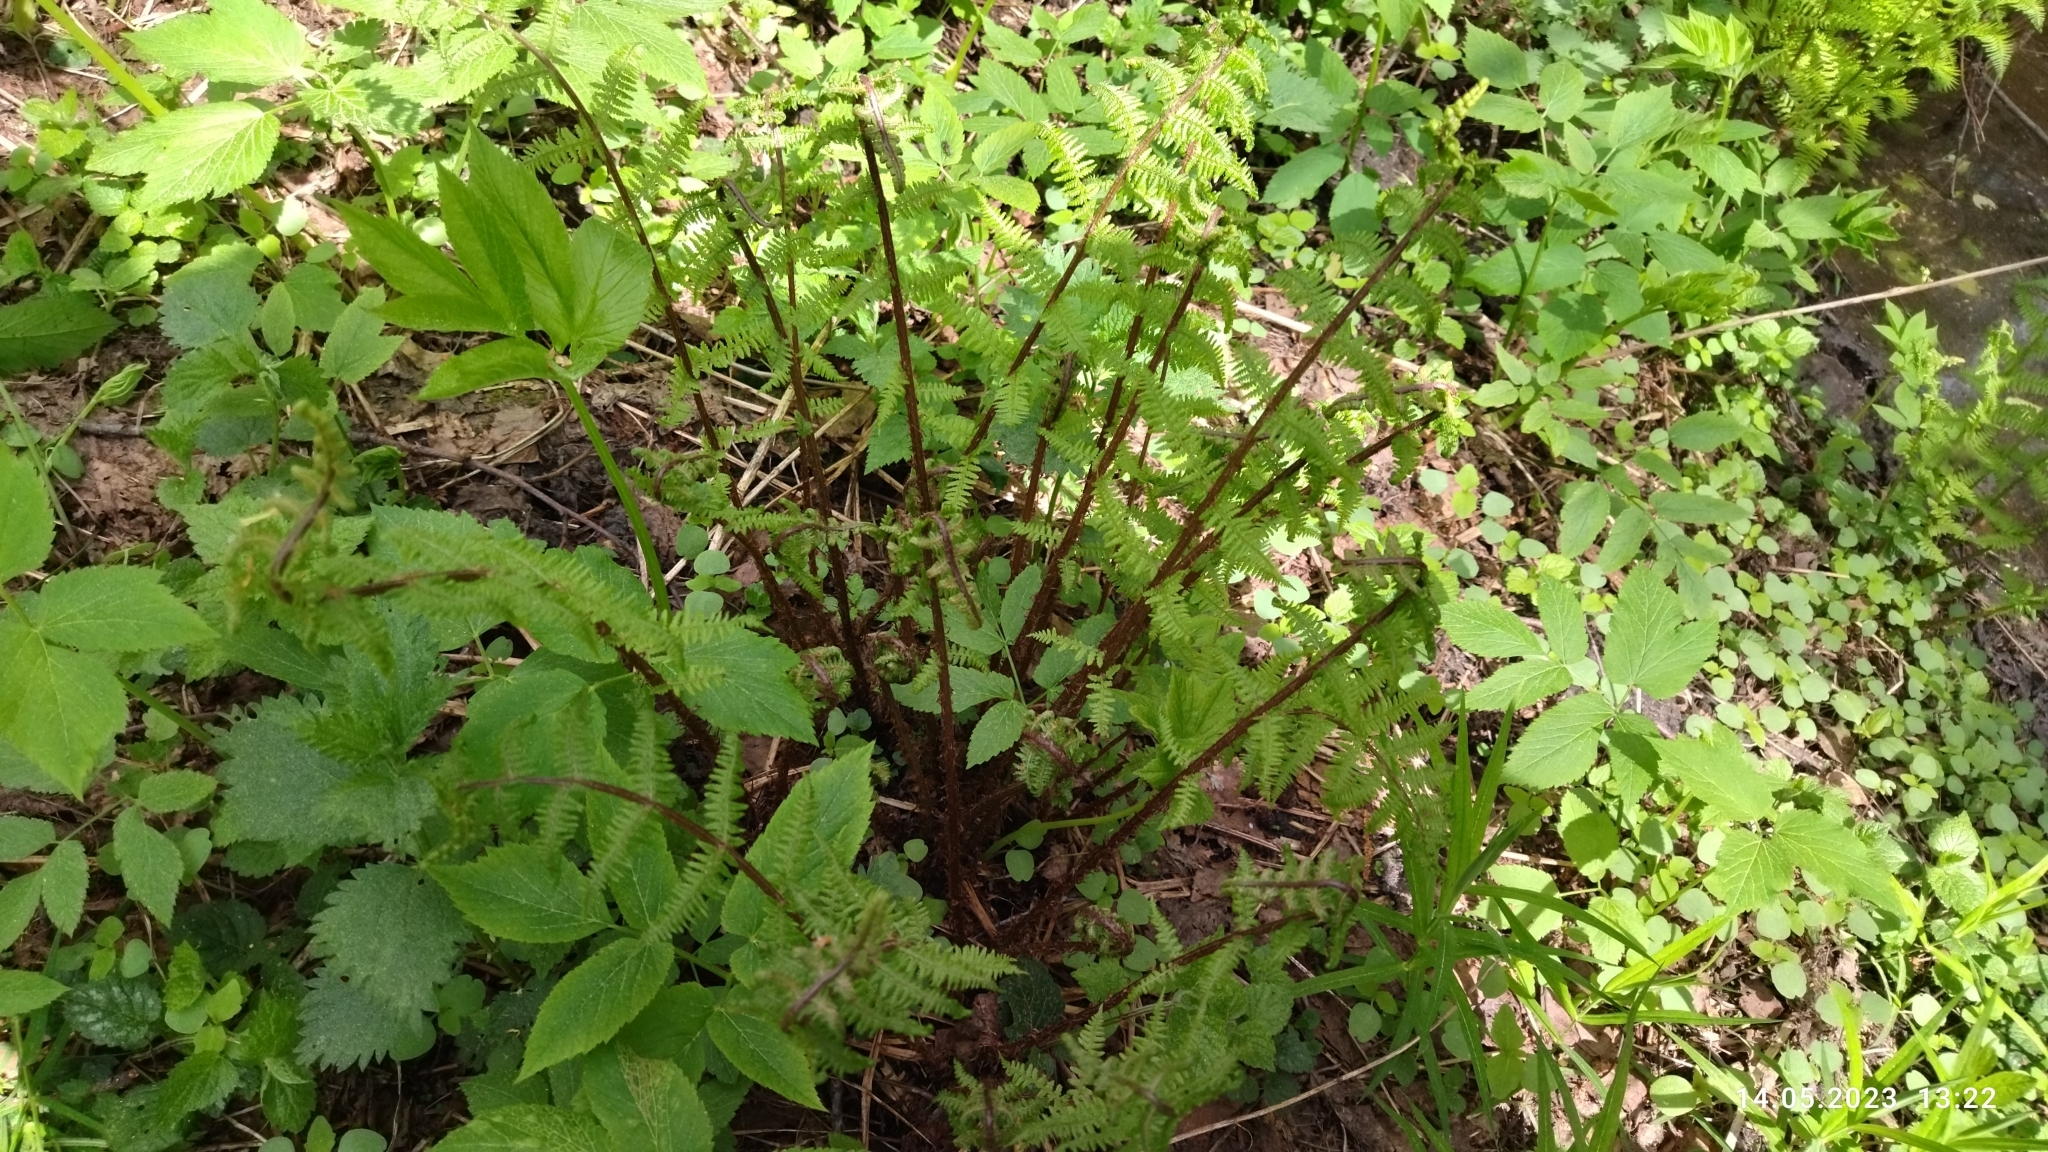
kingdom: Plantae
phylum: Tracheophyta
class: Polypodiopsida
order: Polypodiales
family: Athyriaceae
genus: Athyrium
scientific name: Athyrium filix-femina
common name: Lady fern
